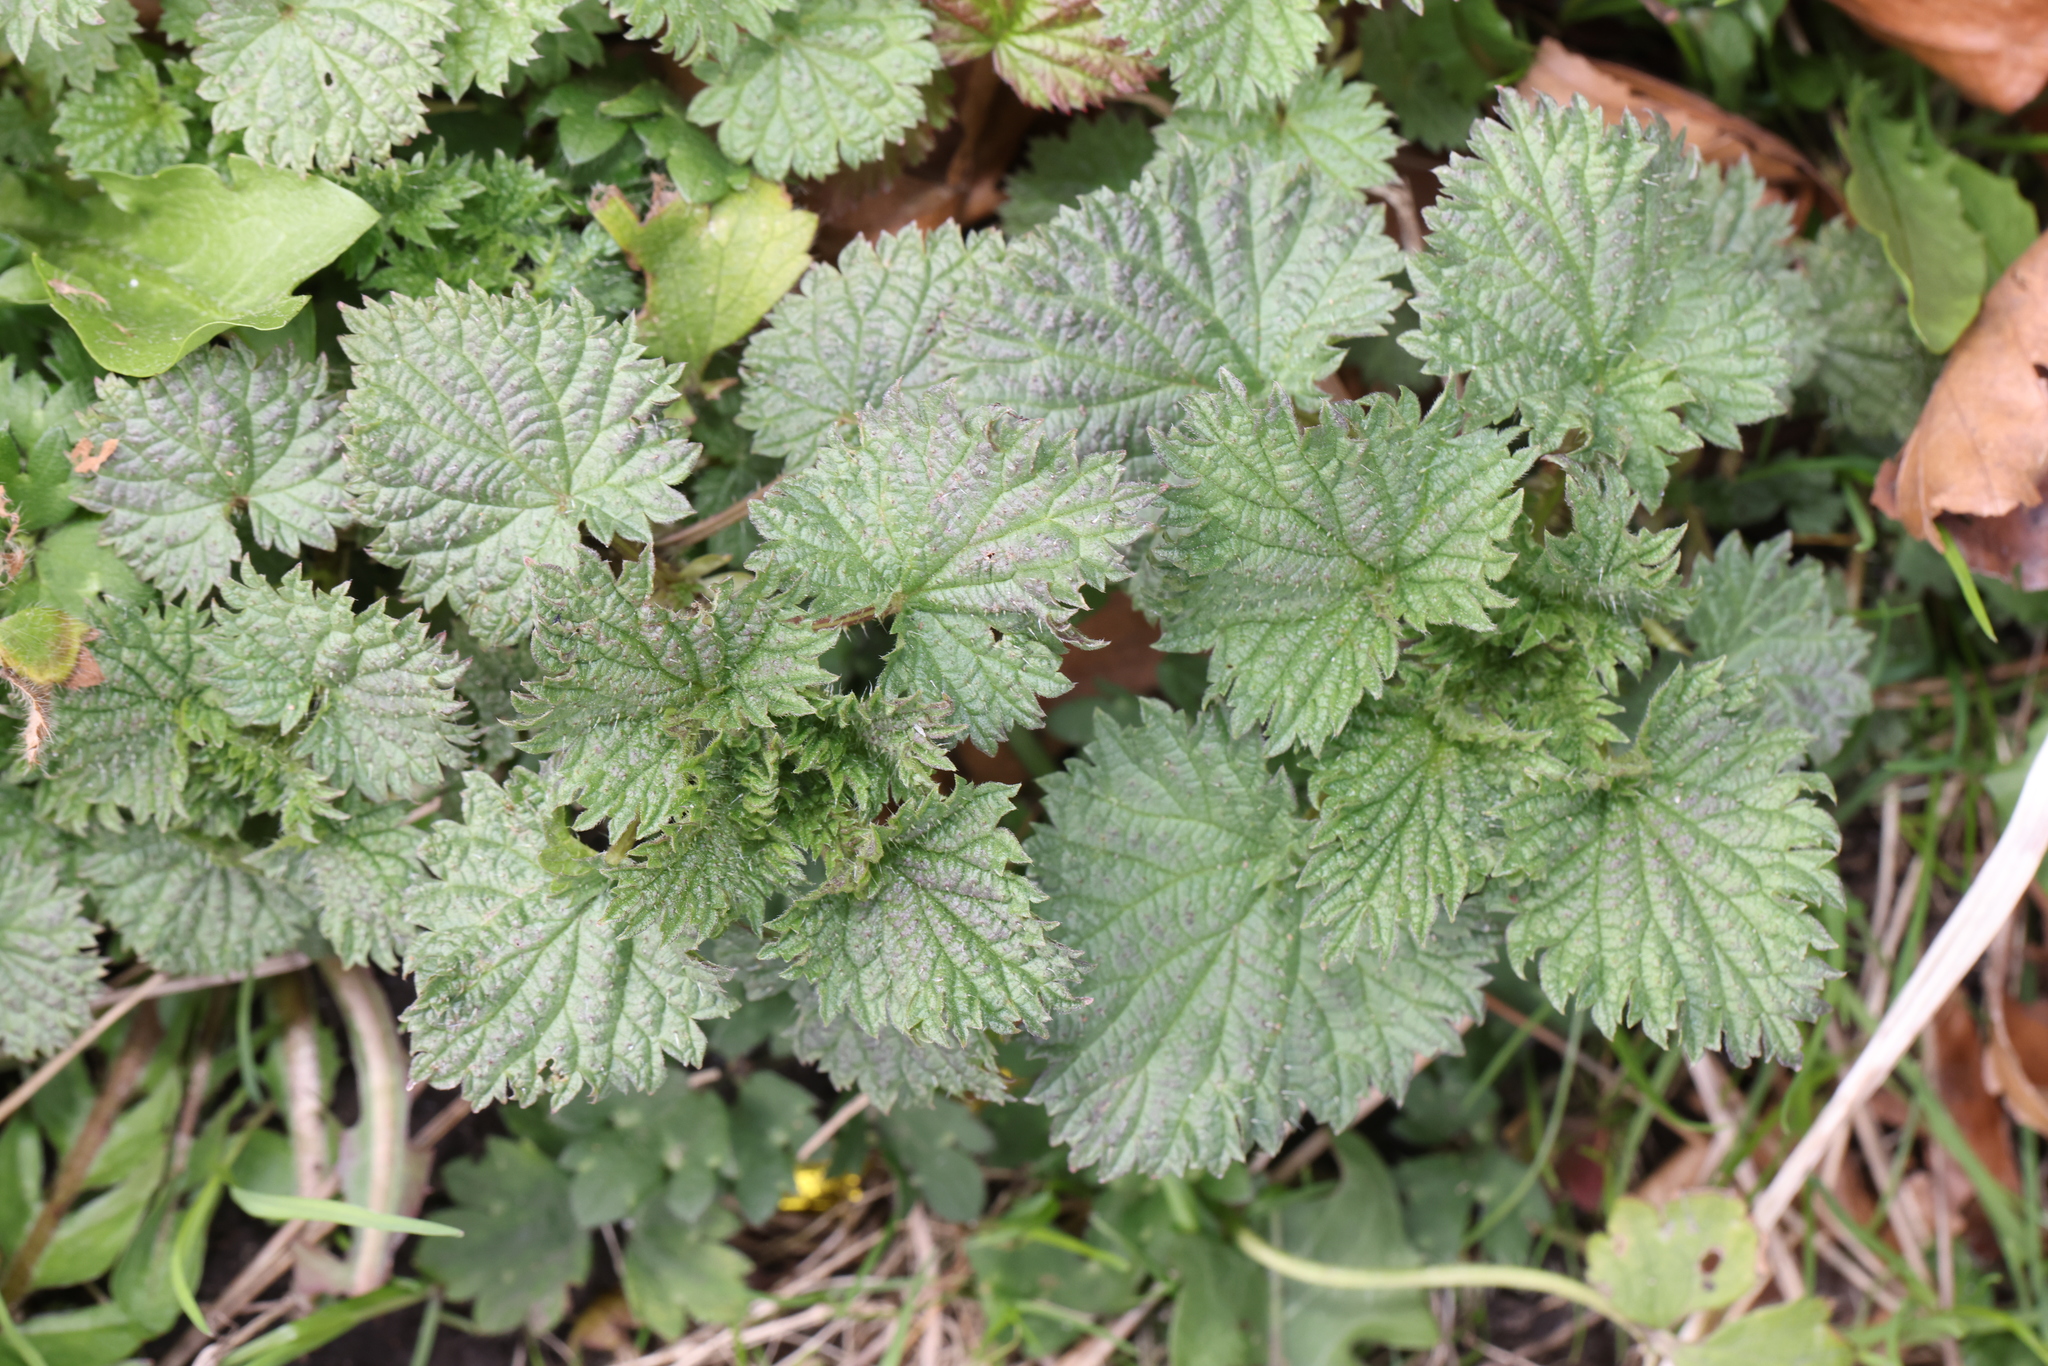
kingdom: Plantae
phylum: Tracheophyta
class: Magnoliopsida
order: Rosales
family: Urticaceae
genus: Urtica
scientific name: Urtica dioica
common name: Common nettle
